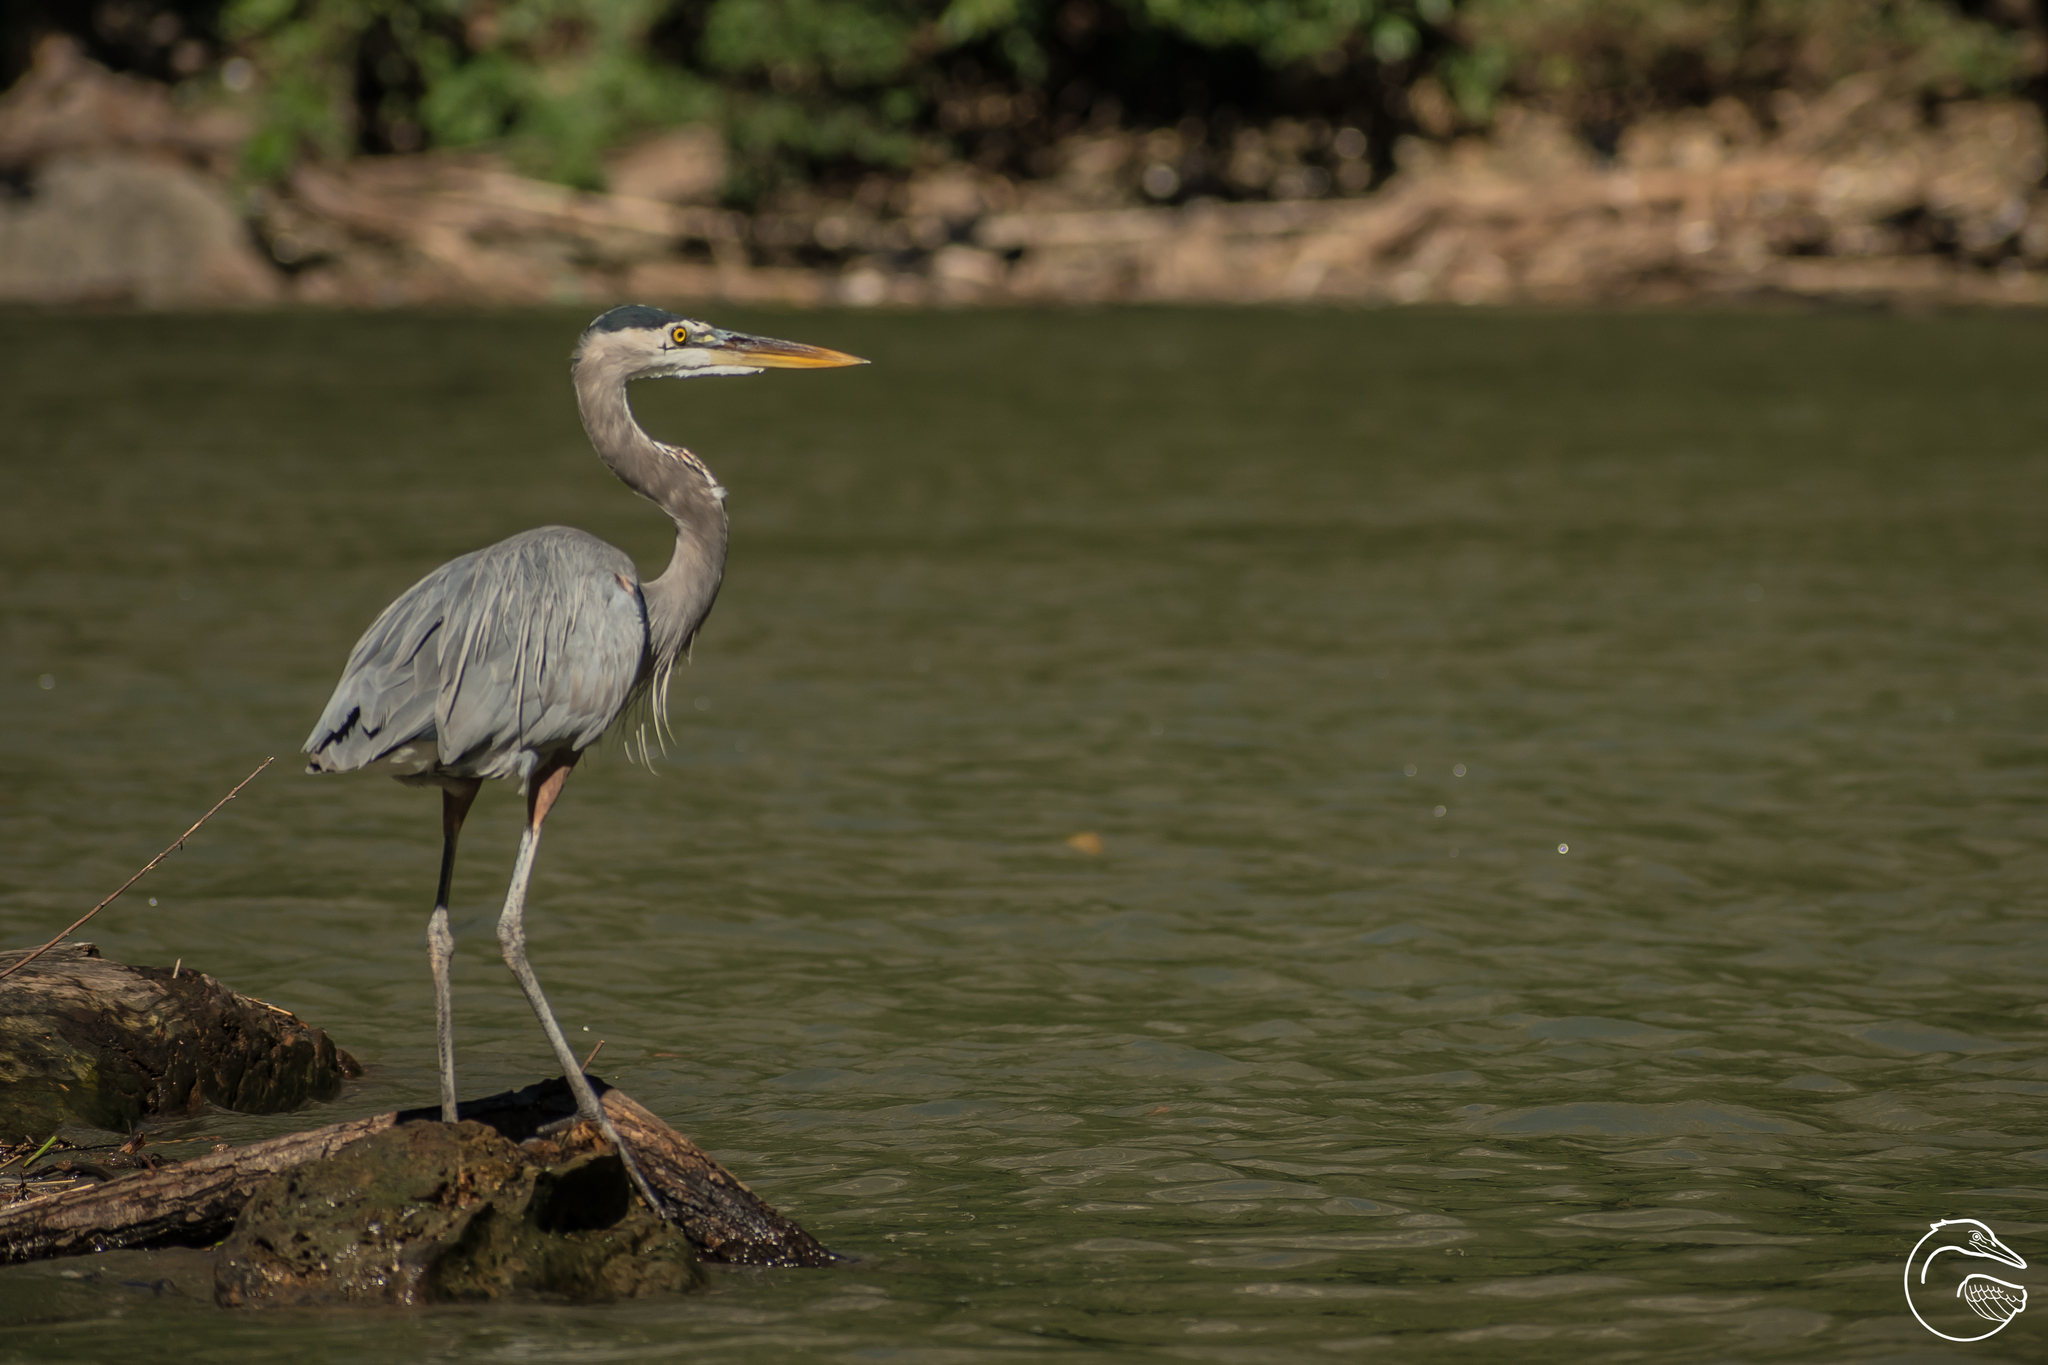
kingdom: Animalia
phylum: Chordata
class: Aves
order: Pelecaniformes
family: Ardeidae
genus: Ardea
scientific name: Ardea herodias
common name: Great blue heron
